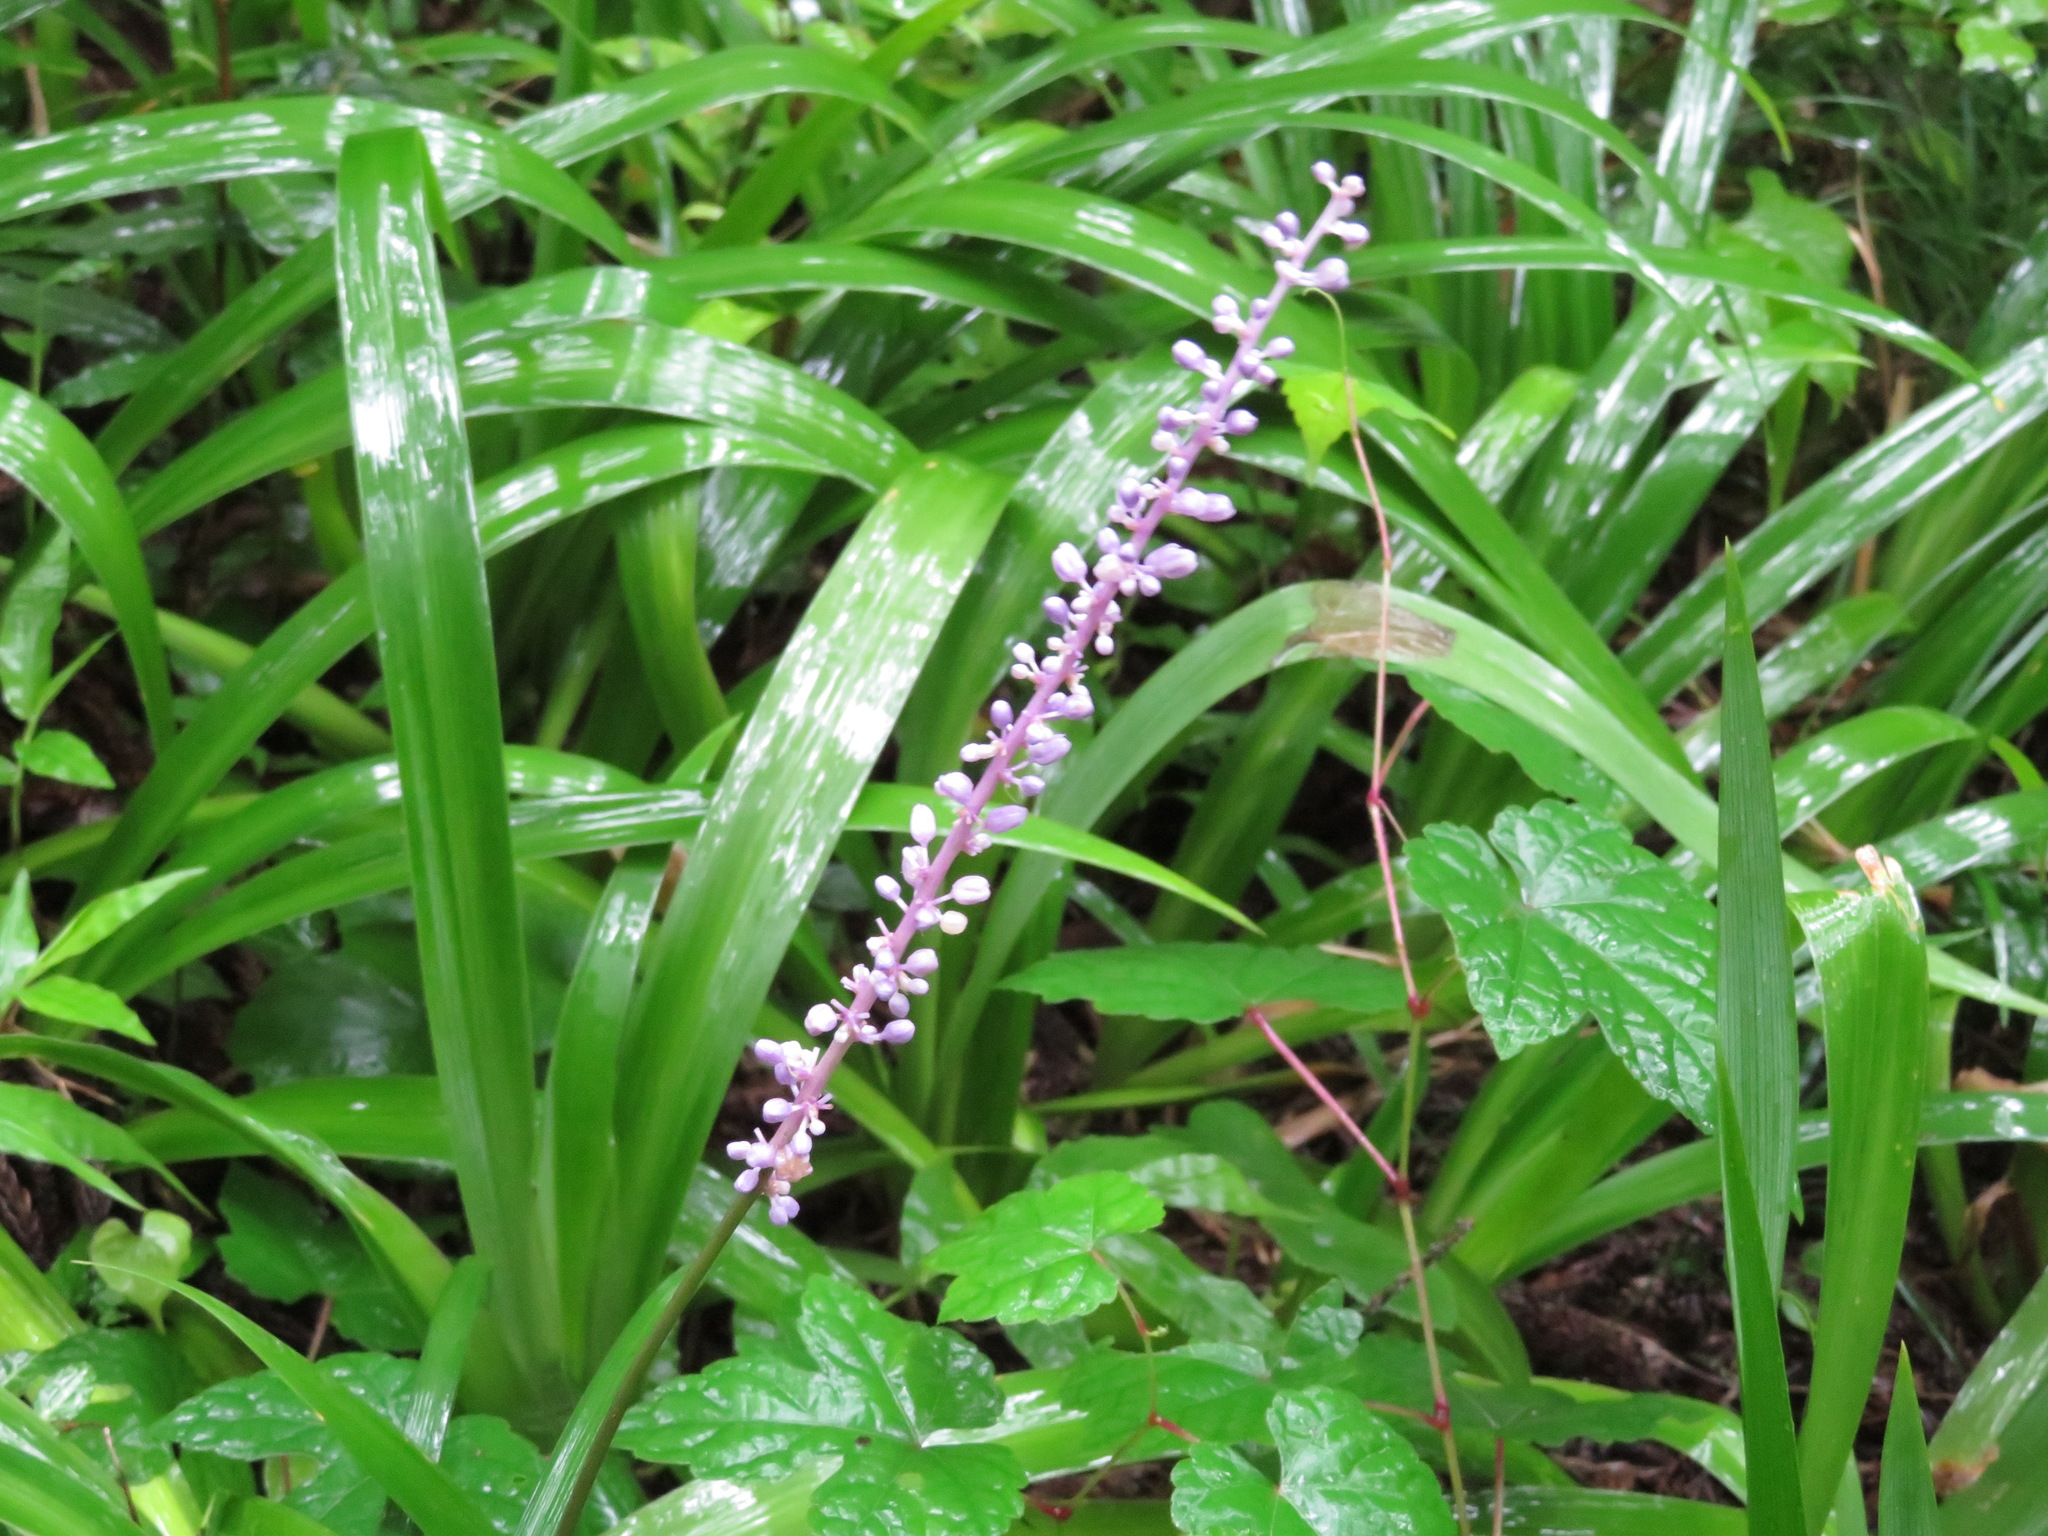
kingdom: Plantae
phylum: Tracheophyta
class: Liliopsida
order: Asparagales
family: Asparagaceae
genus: Liriope
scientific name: Liriope muscari
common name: Big blue lilyturf
